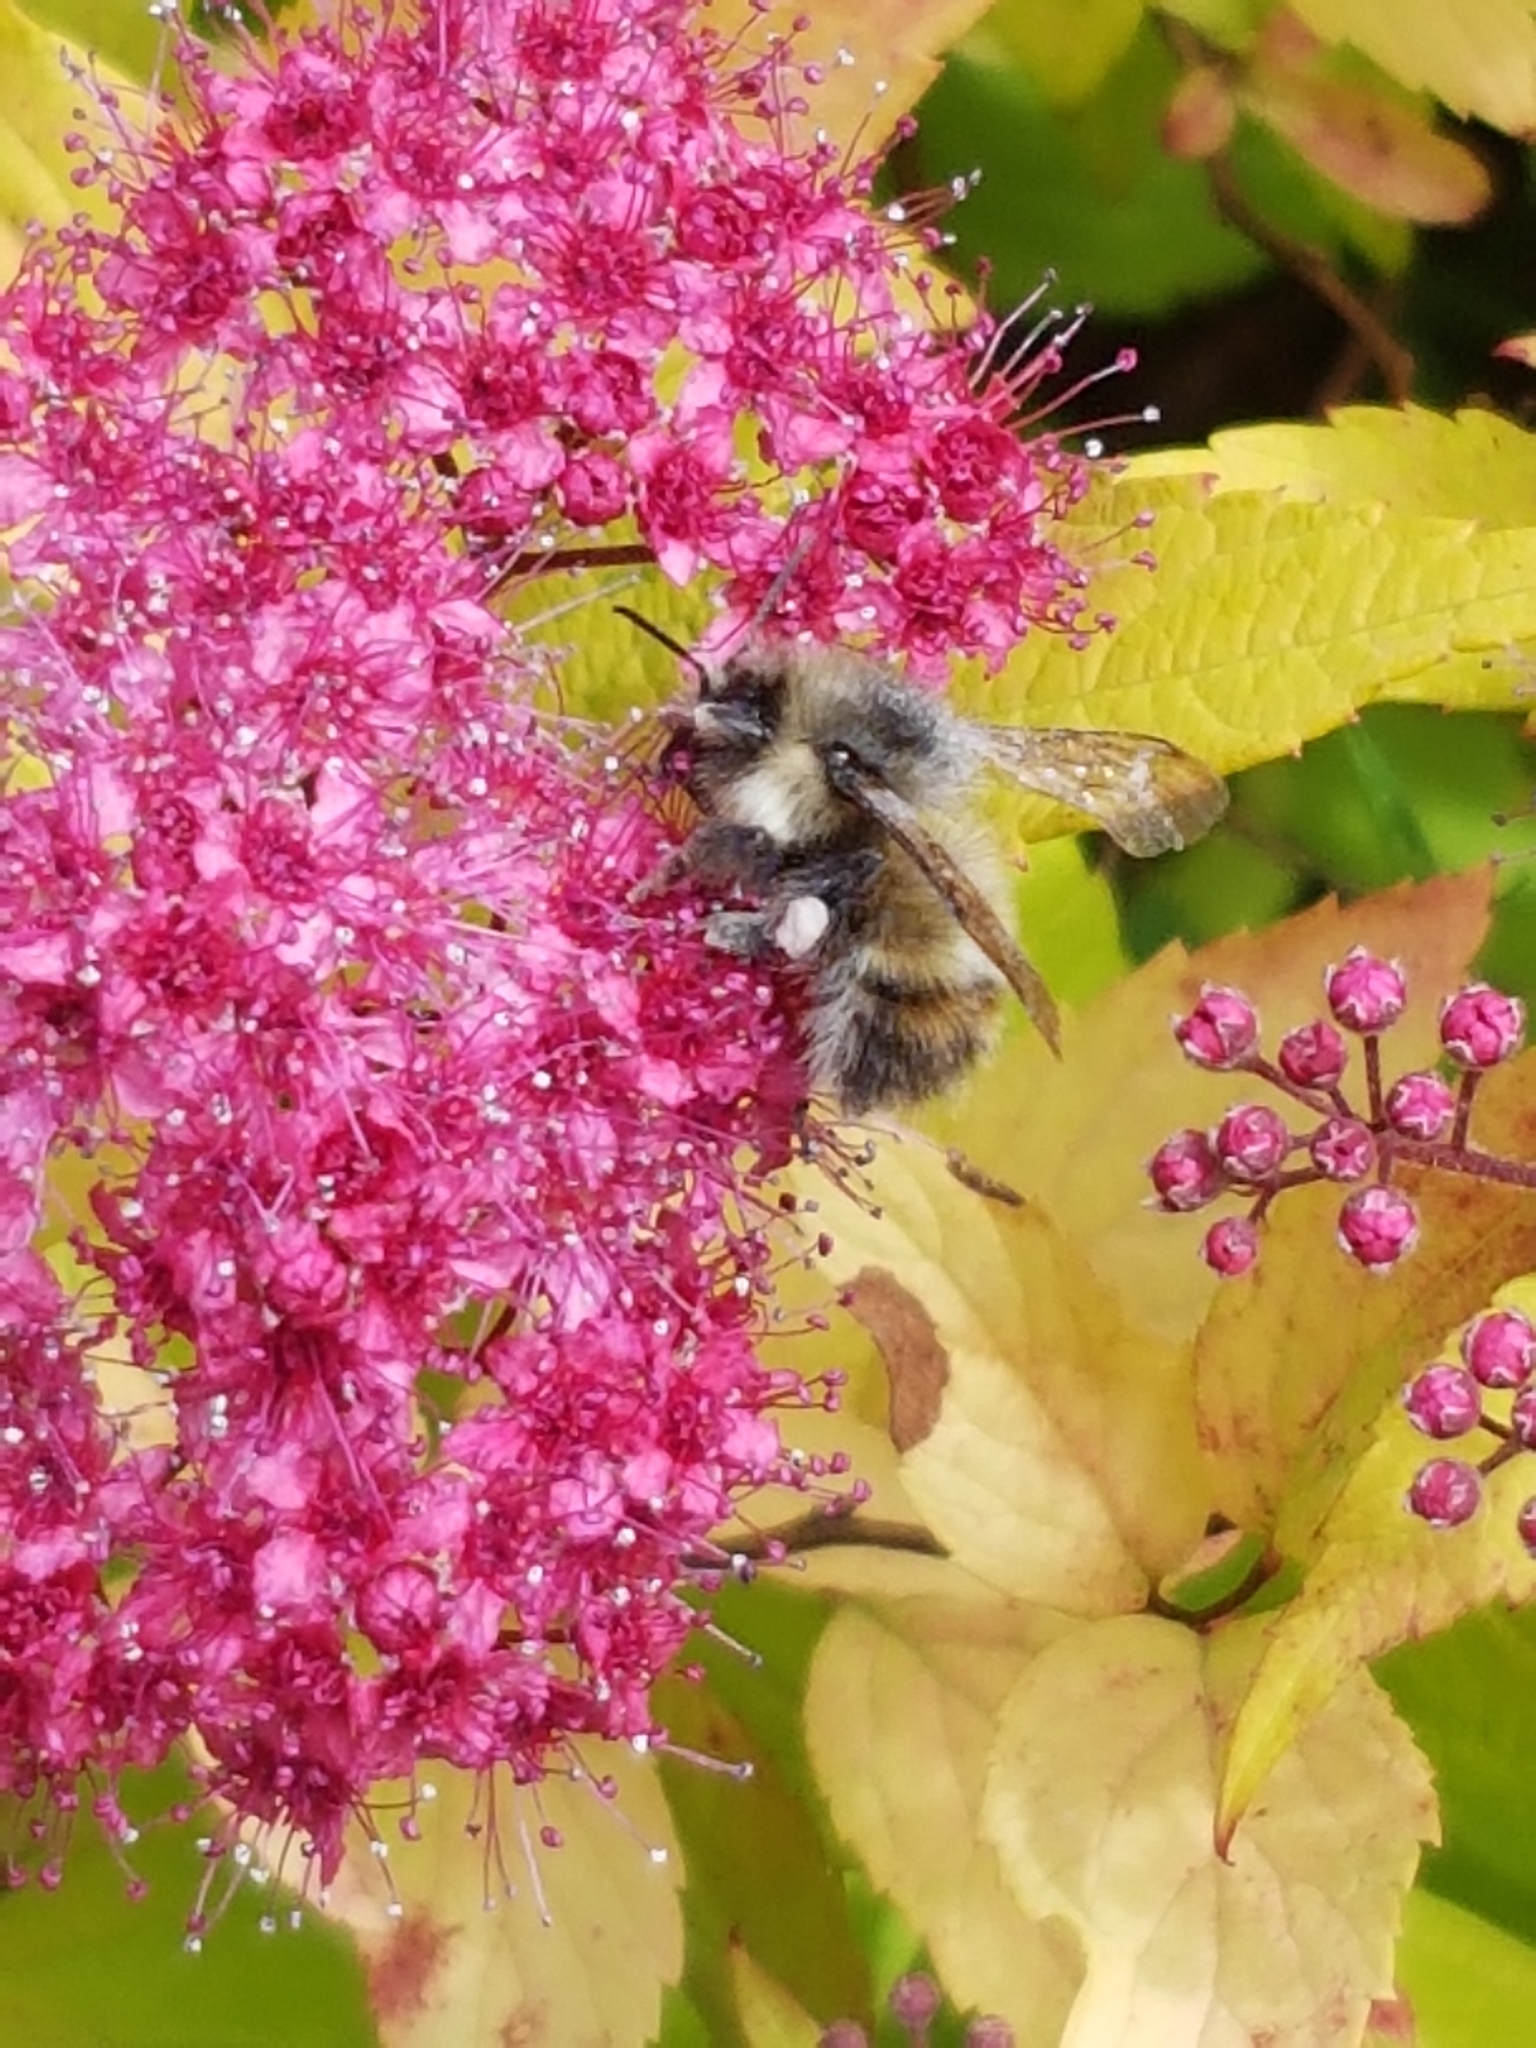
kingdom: Animalia
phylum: Arthropoda
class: Insecta
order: Hymenoptera
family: Apidae
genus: Bombus
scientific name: Bombus flavifrons
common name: Yellow head bumble bee
